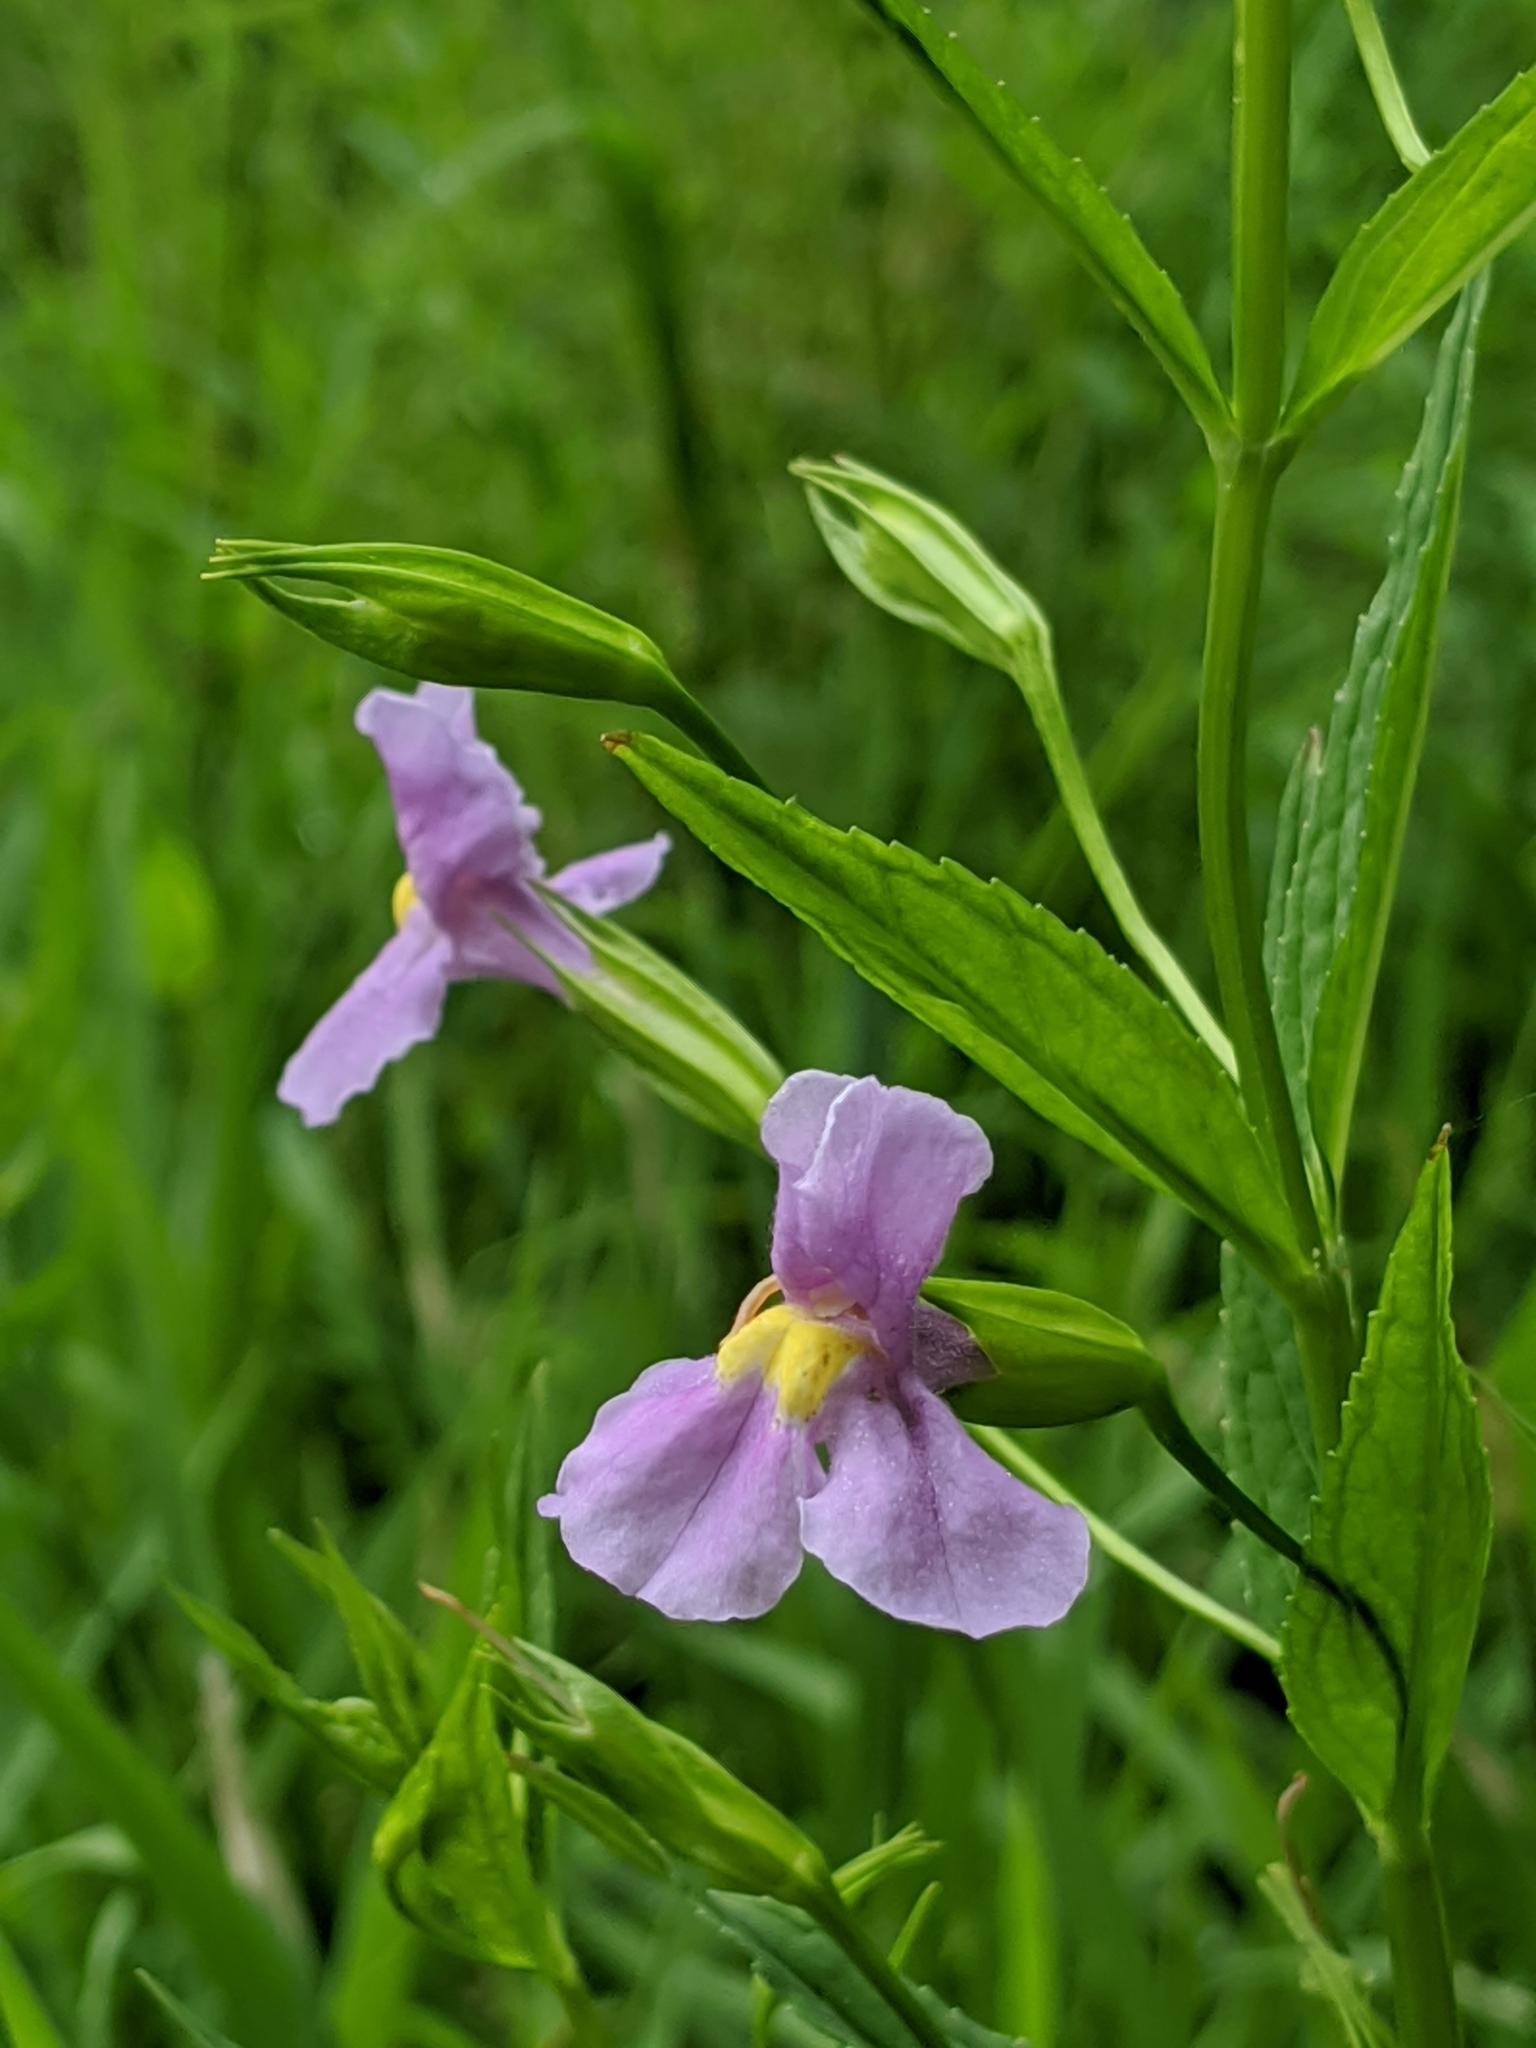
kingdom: Plantae
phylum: Tracheophyta
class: Magnoliopsida
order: Lamiales
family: Phrymaceae
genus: Mimulus
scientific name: Mimulus ringens
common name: Allegheny monkeyflower
